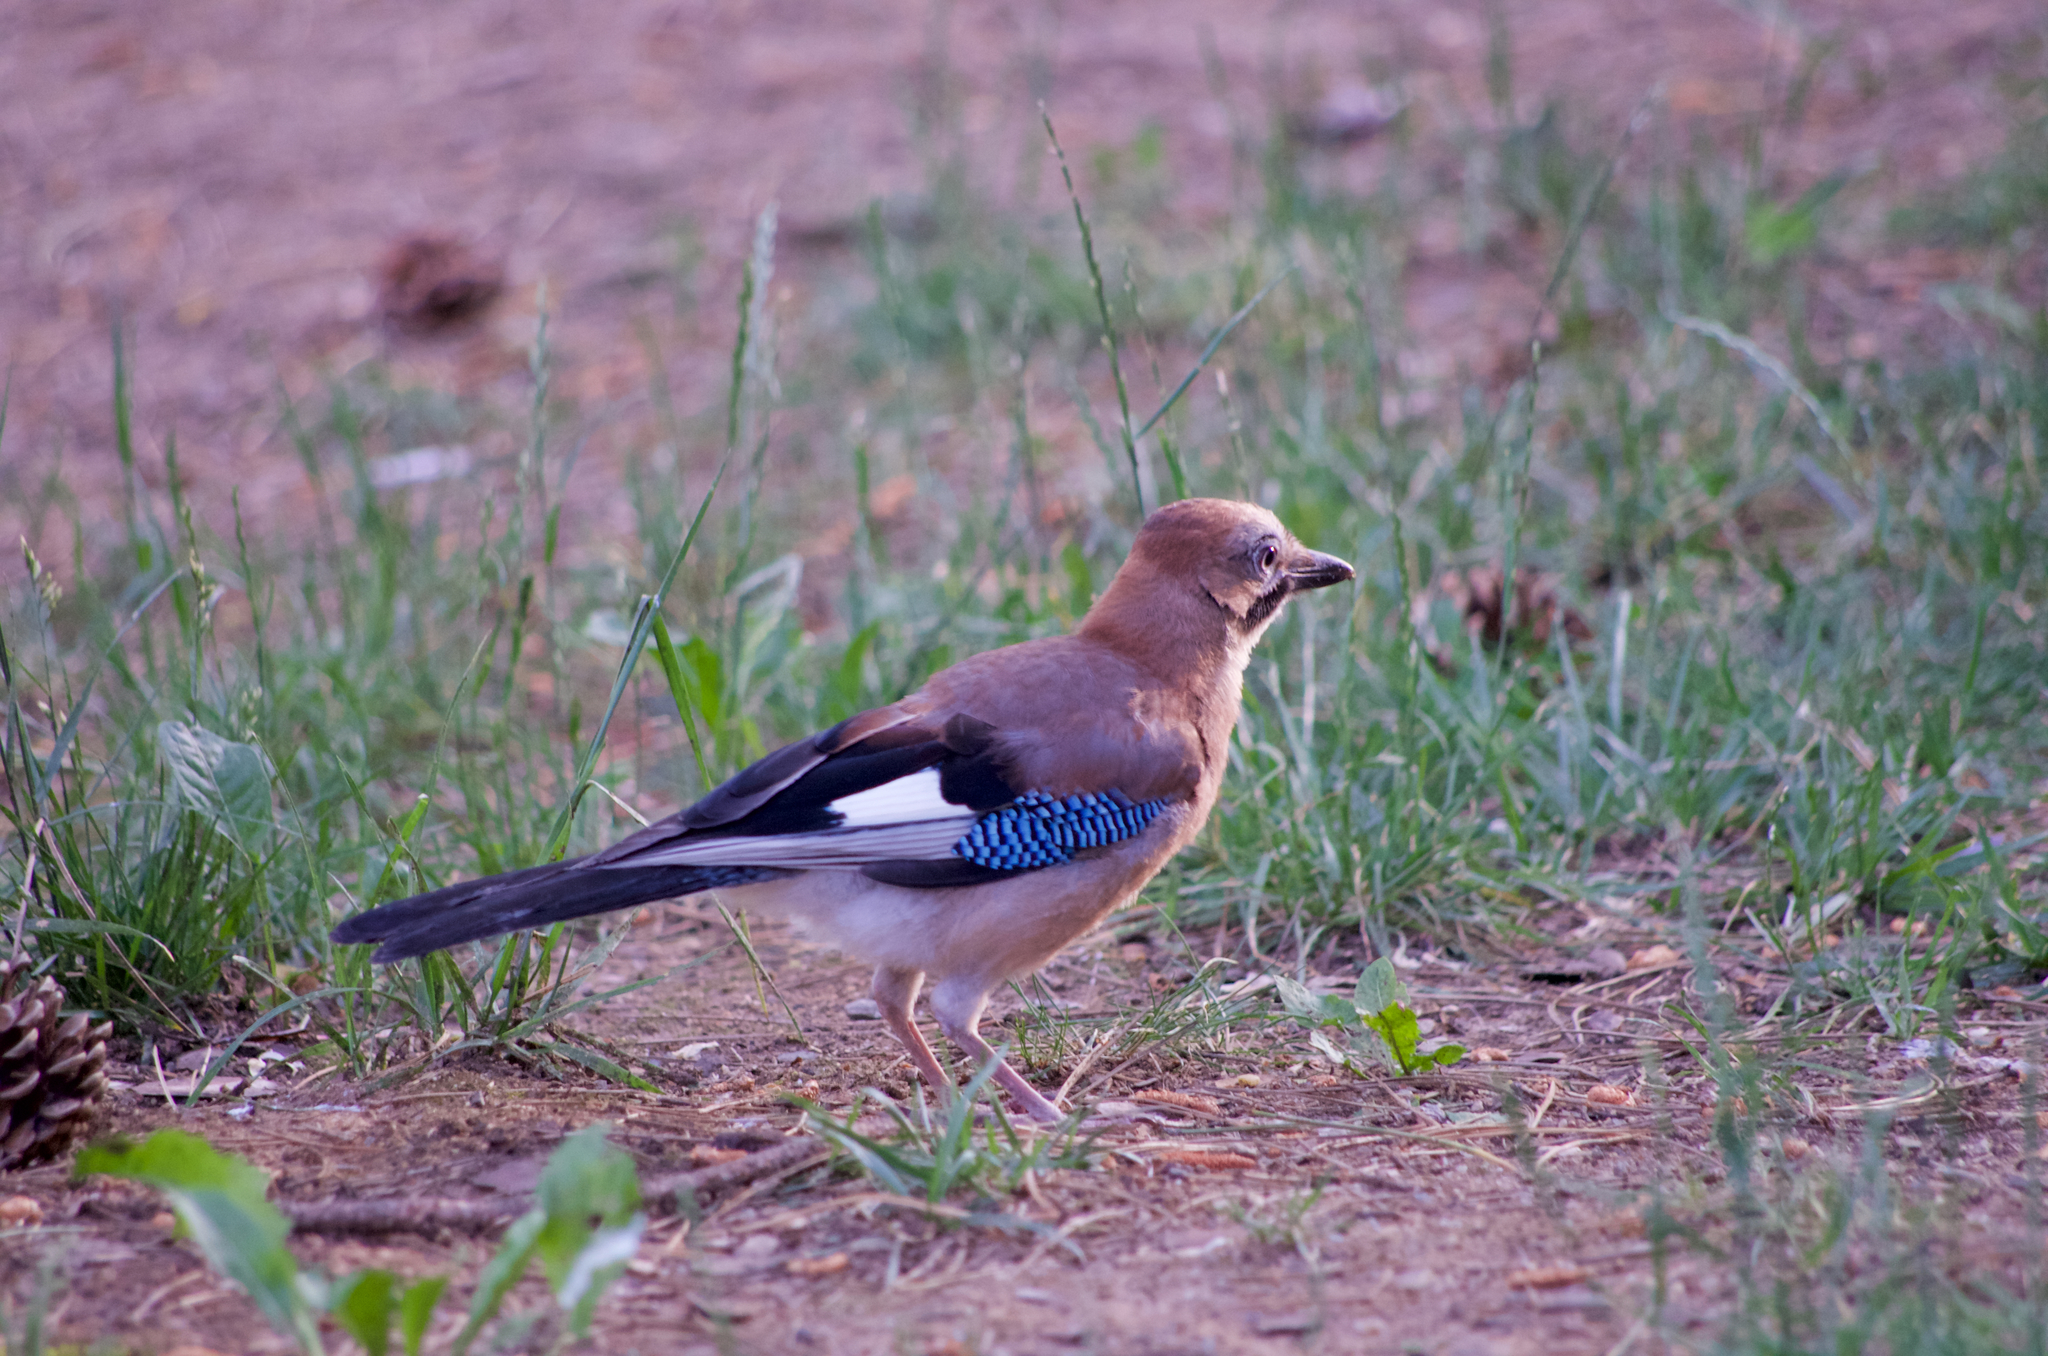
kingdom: Animalia
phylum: Chordata
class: Aves
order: Passeriformes
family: Corvidae
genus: Garrulus
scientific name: Garrulus glandarius
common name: Eurasian jay
